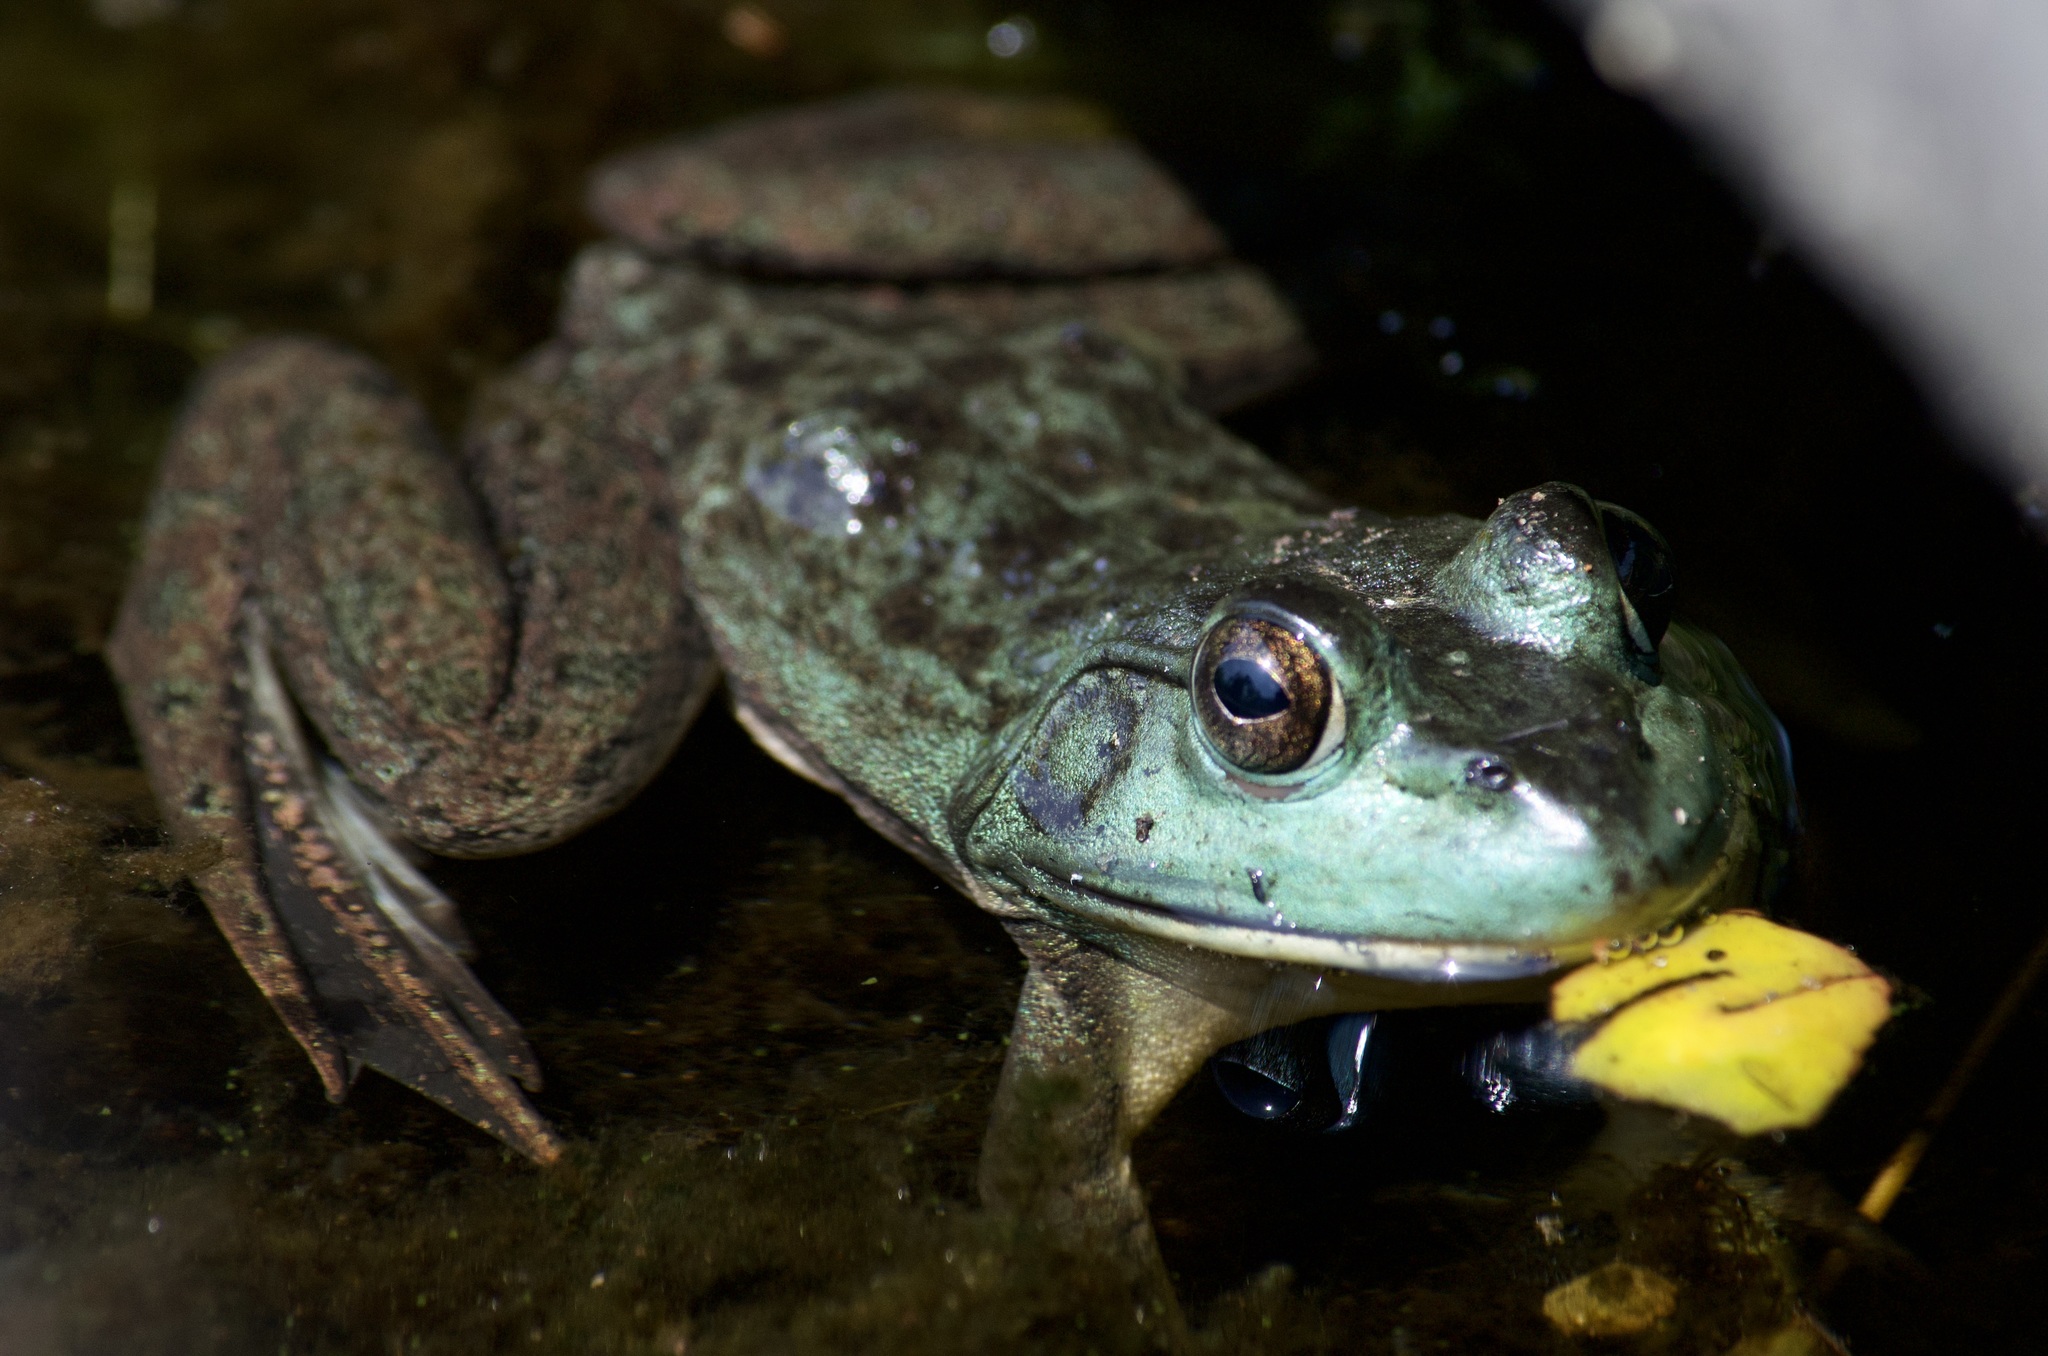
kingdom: Animalia
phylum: Chordata
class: Amphibia
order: Anura
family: Ranidae
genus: Lithobates
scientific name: Lithobates catesbeianus
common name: American bullfrog
